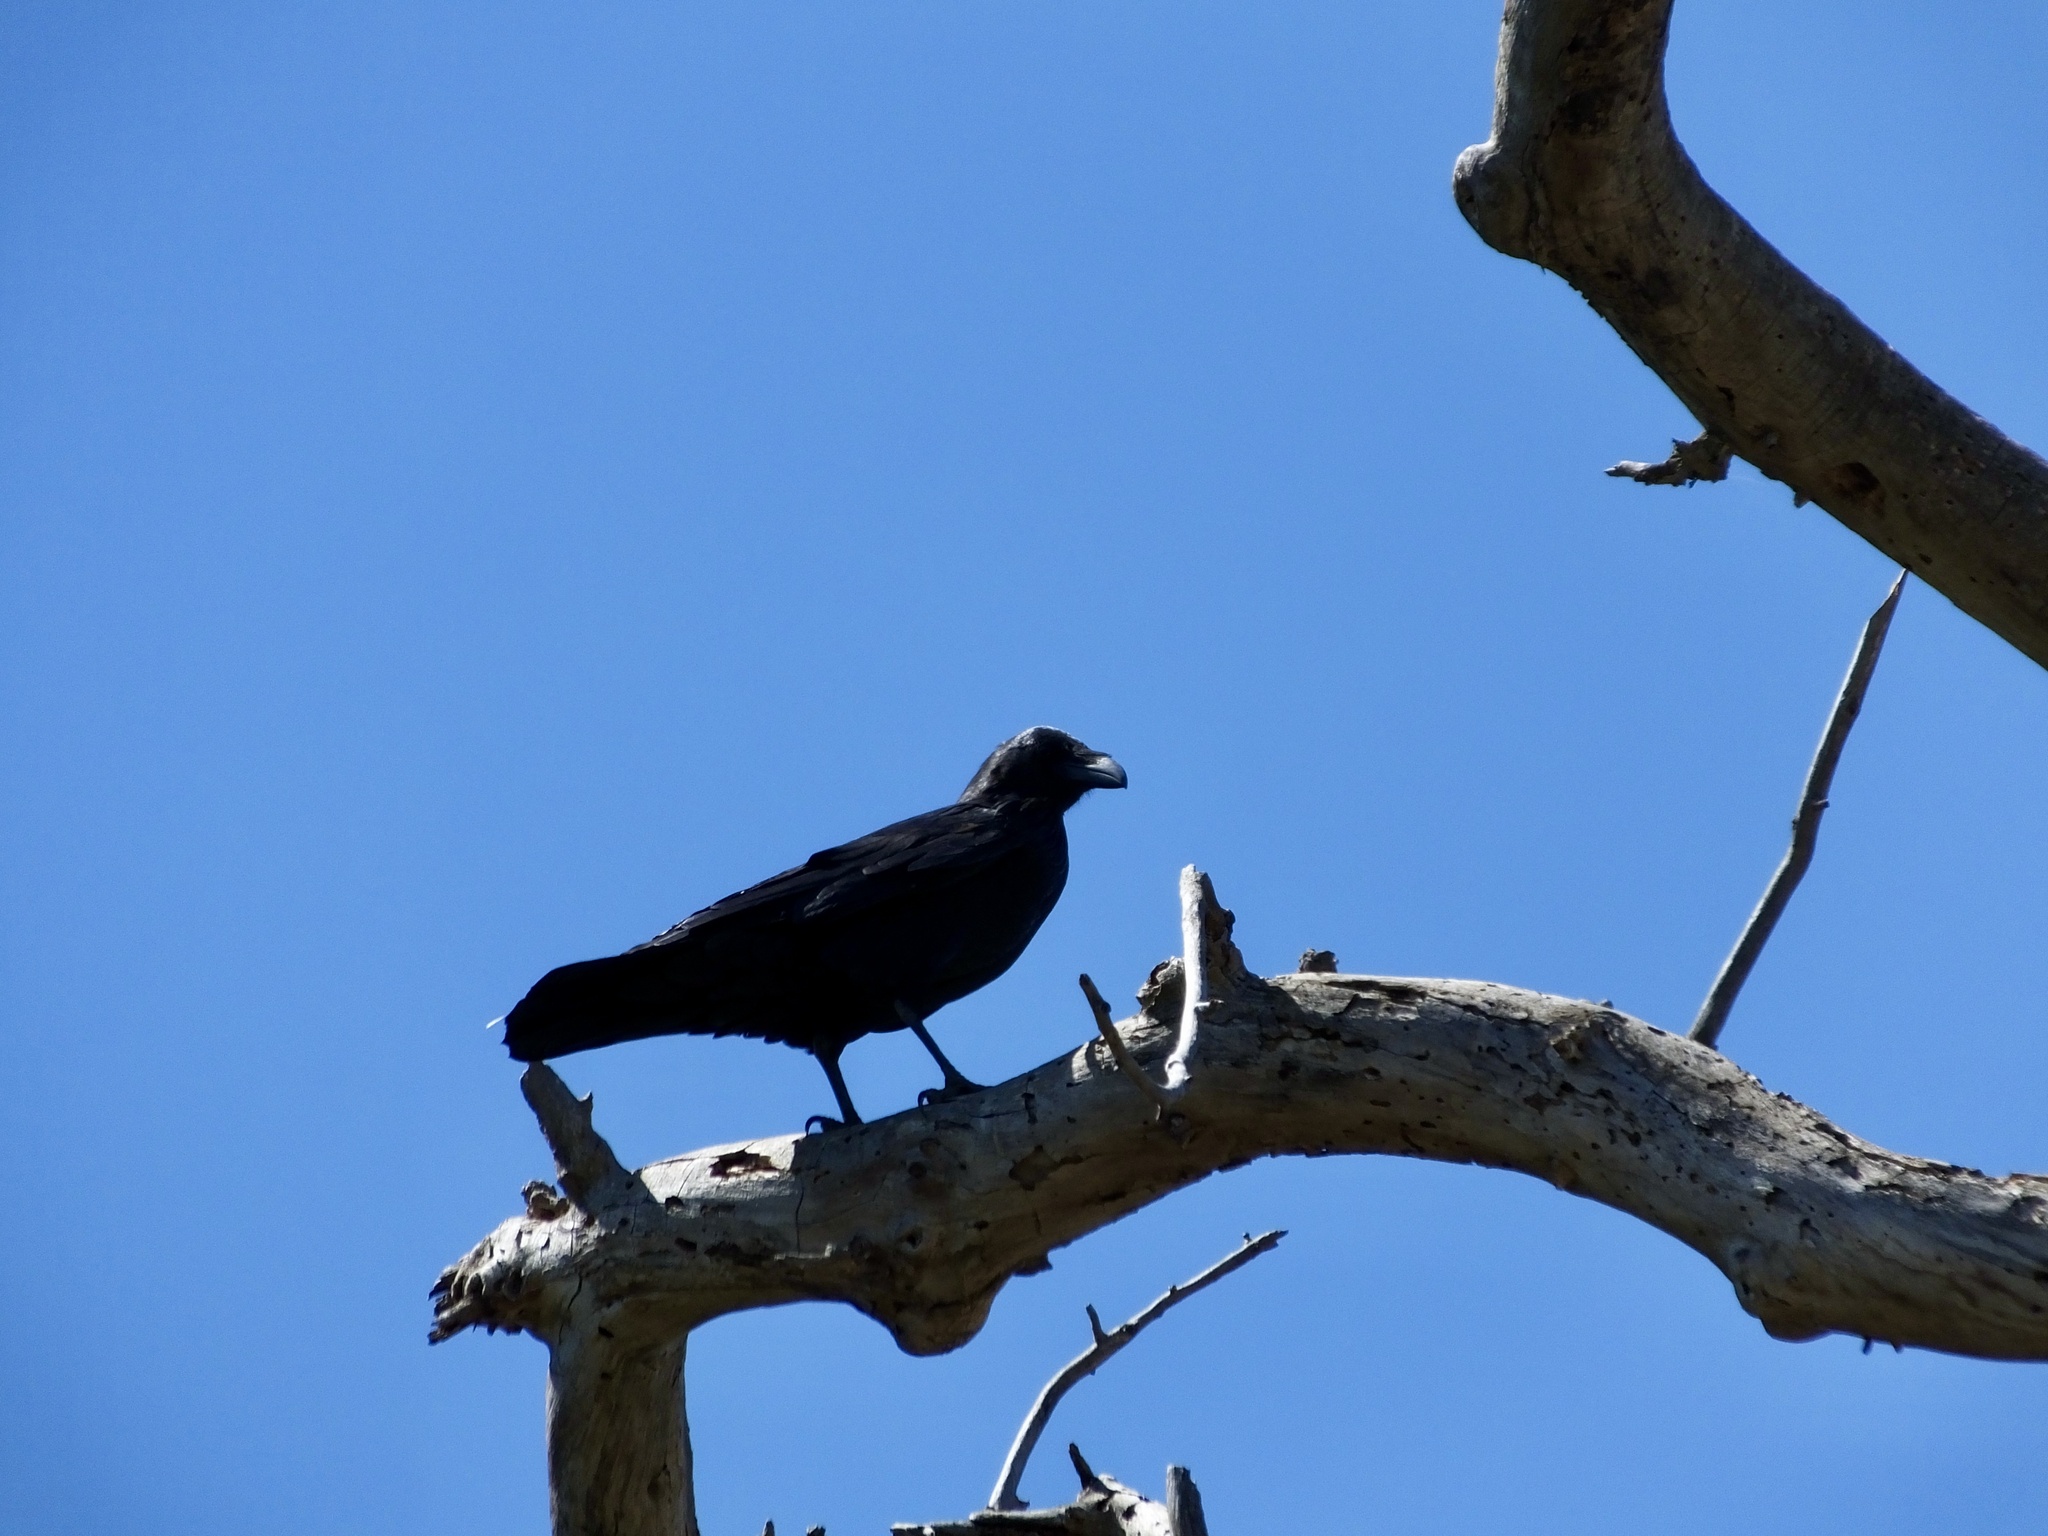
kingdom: Animalia
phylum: Chordata
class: Aves
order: Passeriformes
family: Corvidae
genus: Corvus
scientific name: Corvus corax
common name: Common raven
